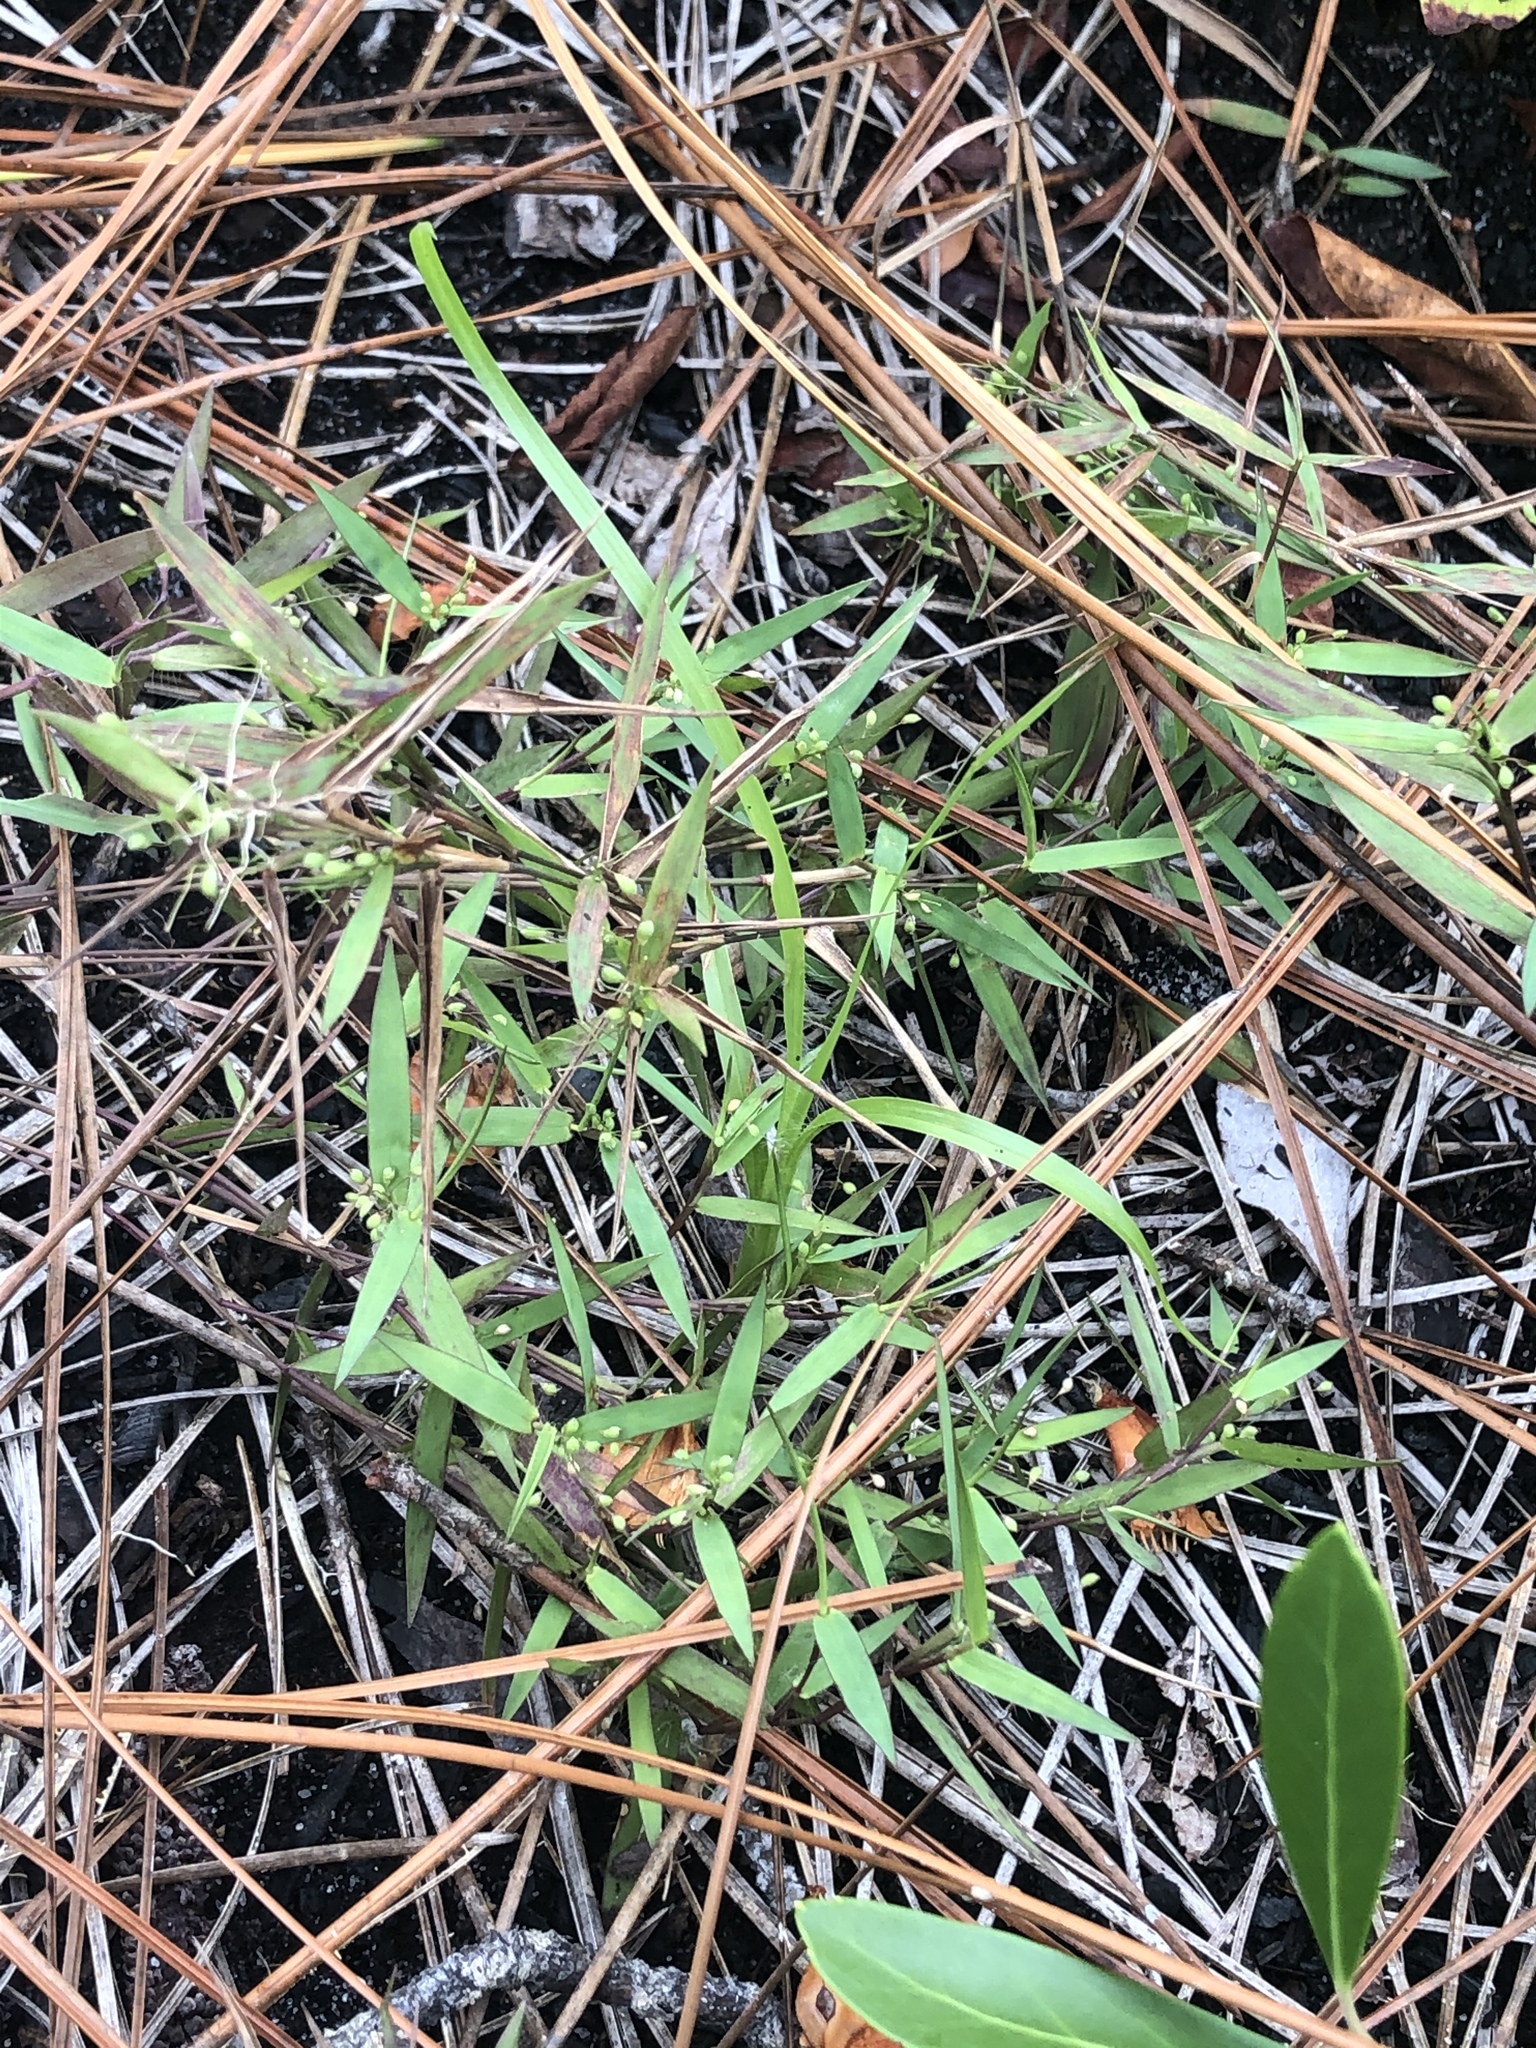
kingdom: Plantae
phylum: Tracheophyta
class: Liliopsida
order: Poales
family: Poaceae
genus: Dichanthelium
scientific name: Dichanthelium portoricense
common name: American panicgrass
